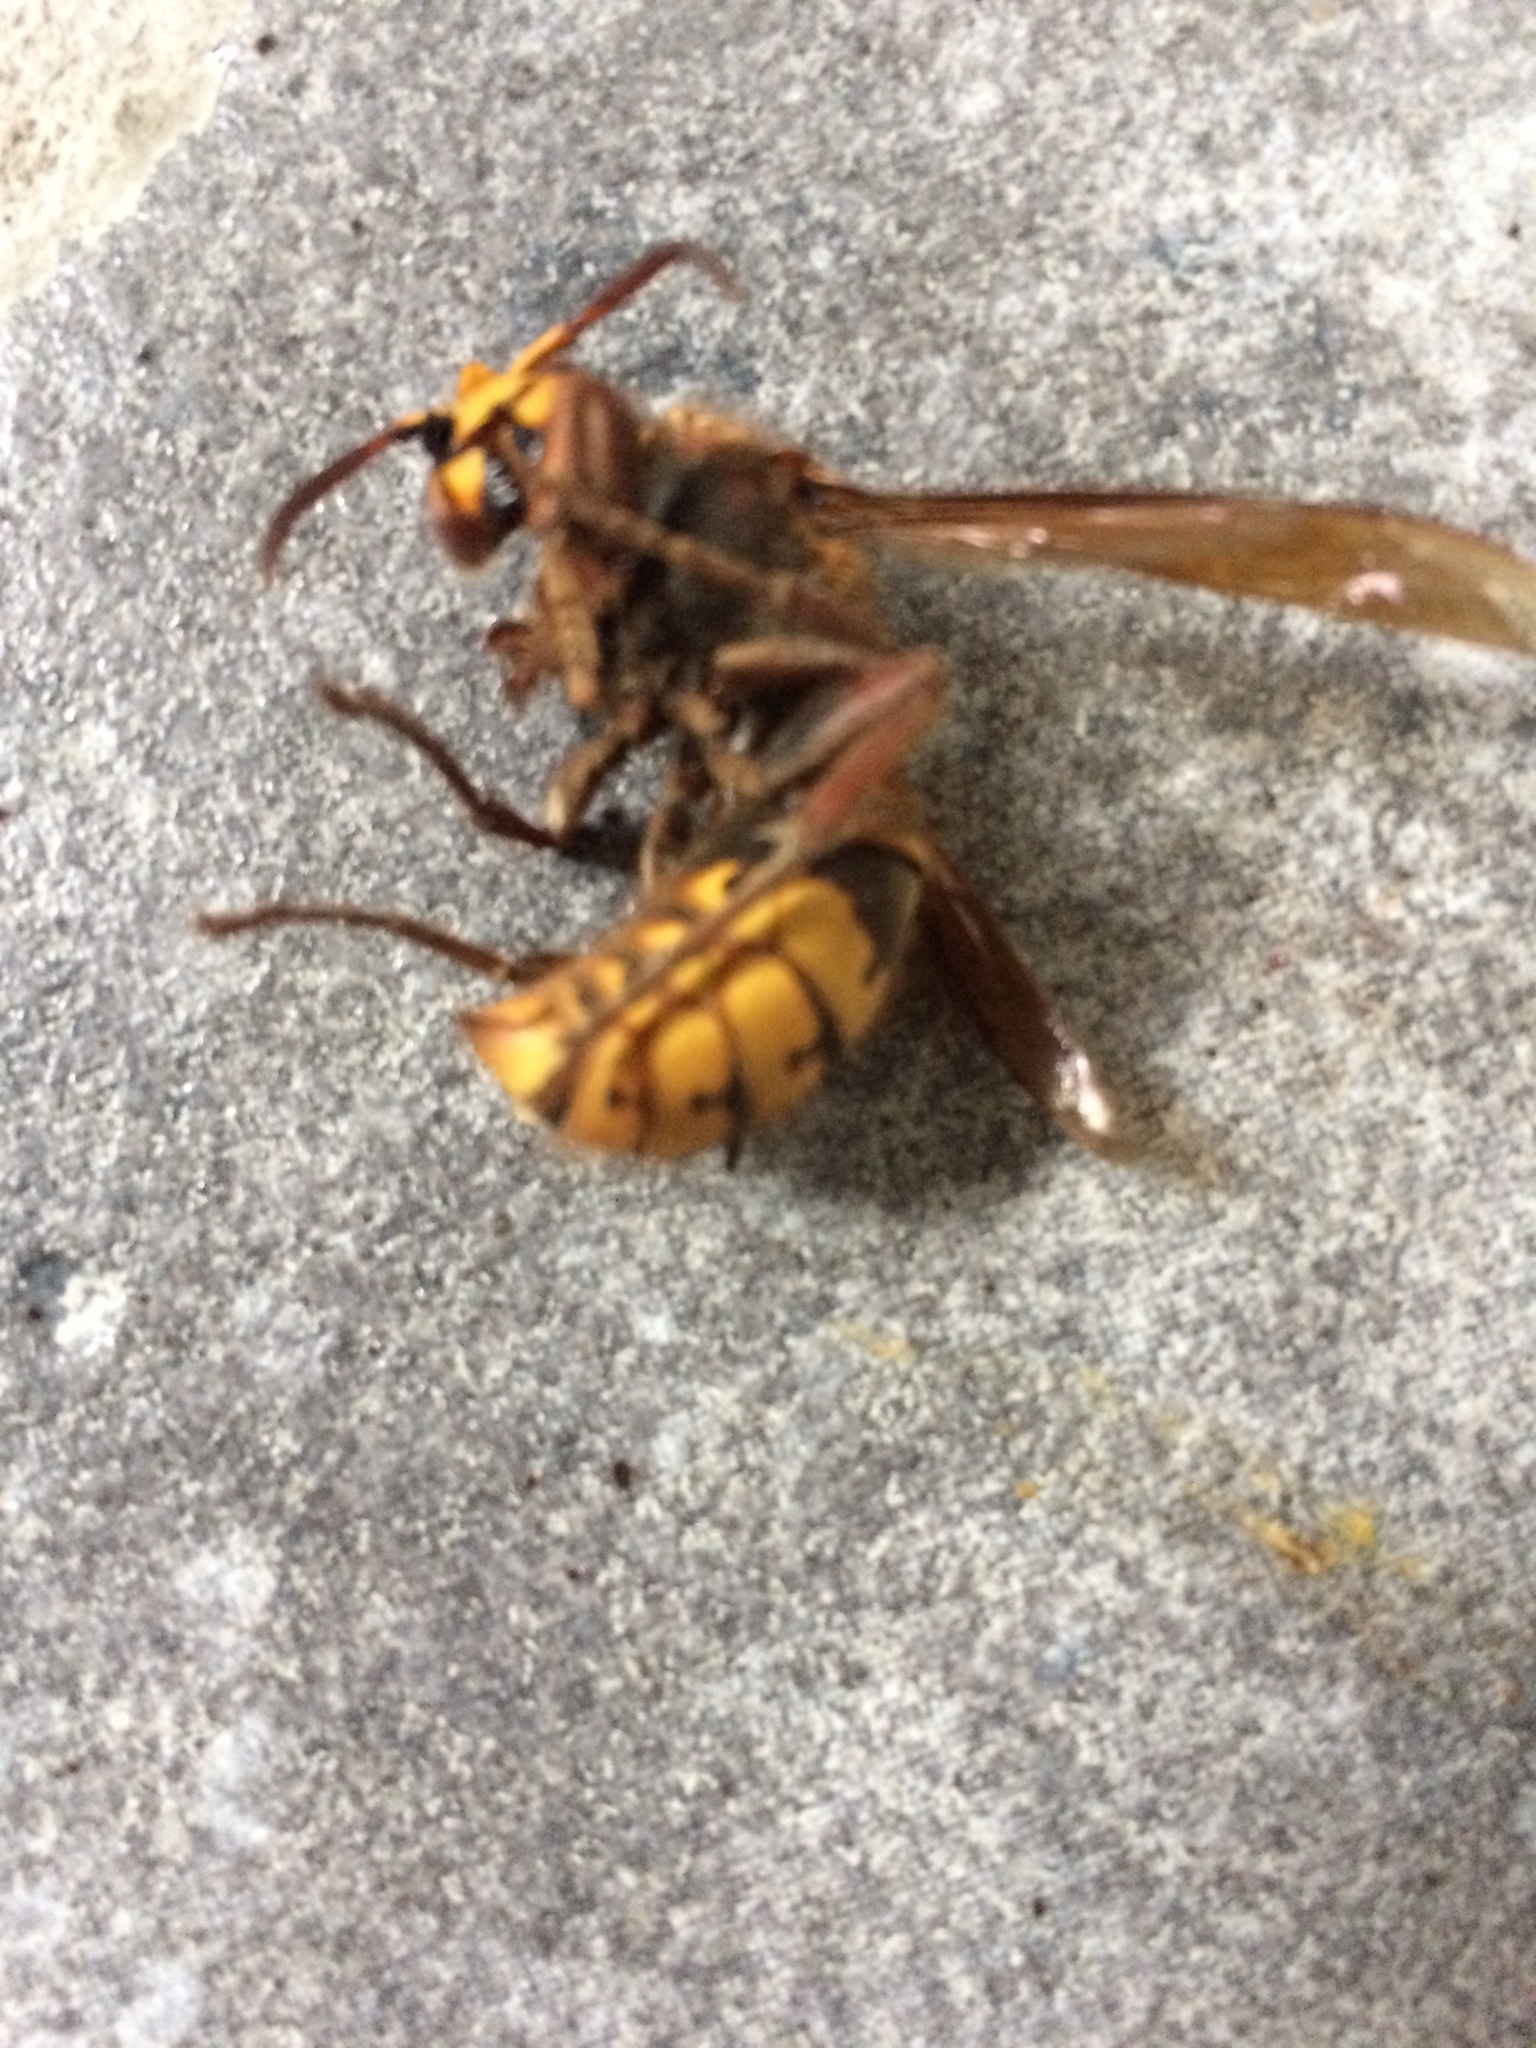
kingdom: Animalia
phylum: Arthropoda
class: Insecta
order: Hymenoptera
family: Vespidae
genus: Vespa
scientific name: Vespa crabro
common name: Hornet
